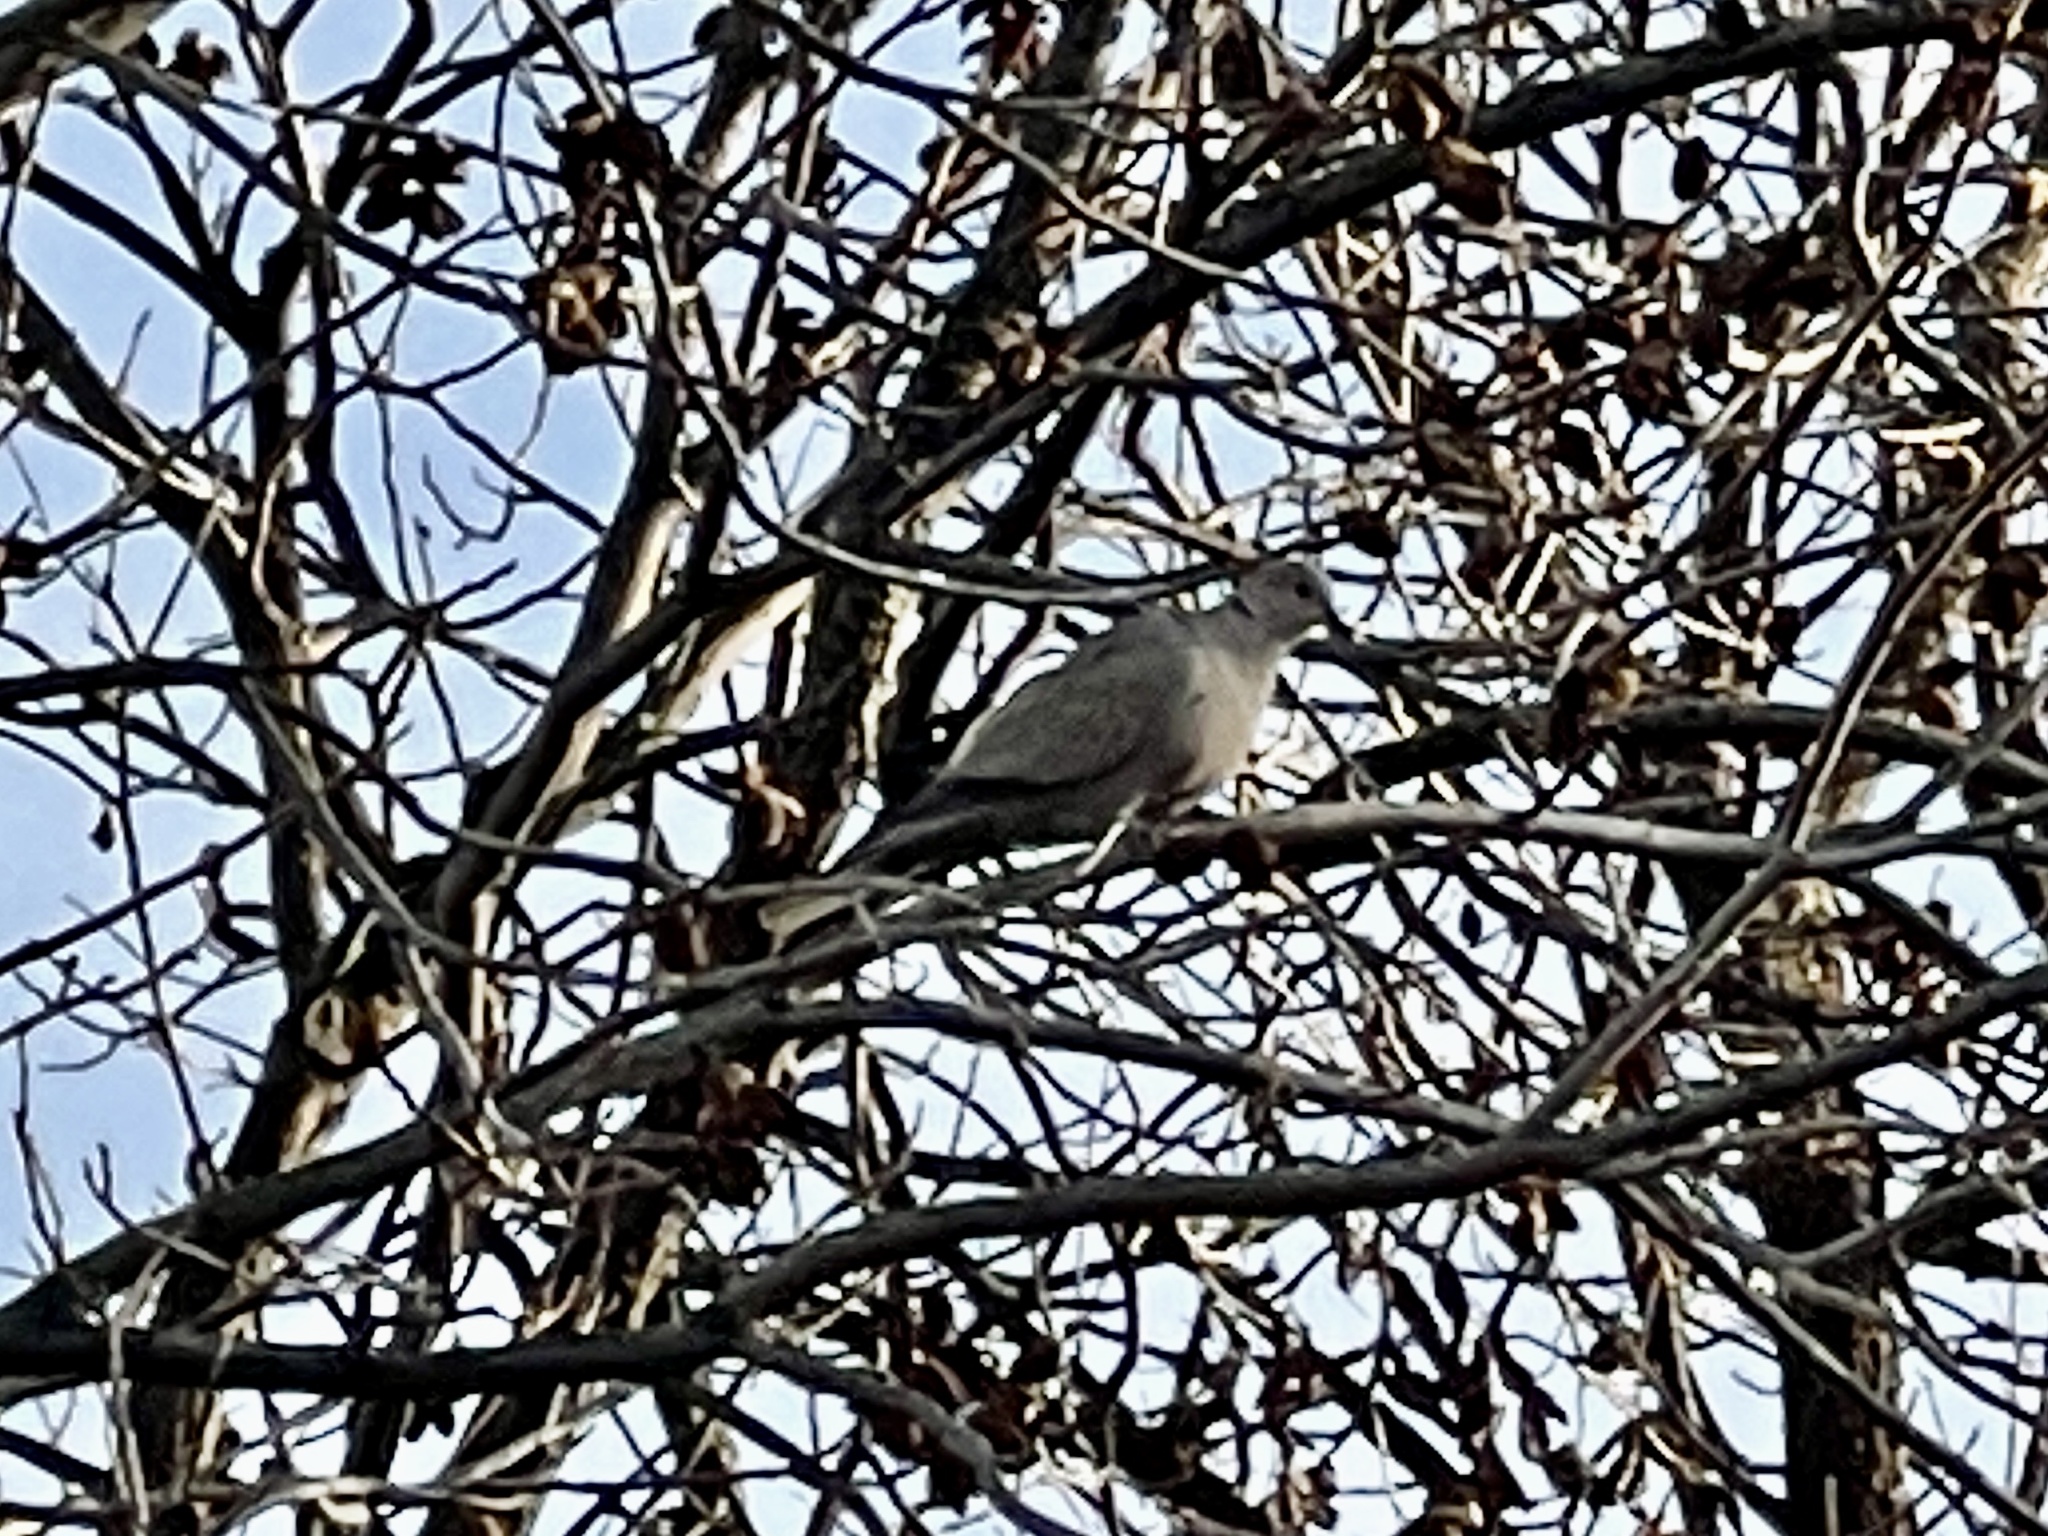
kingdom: Animalia
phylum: Chordata
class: Aves
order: Columbiformes
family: Columbidae
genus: Streptopelia
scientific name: Streptopelia decaocto
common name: Eurasian collared dove
